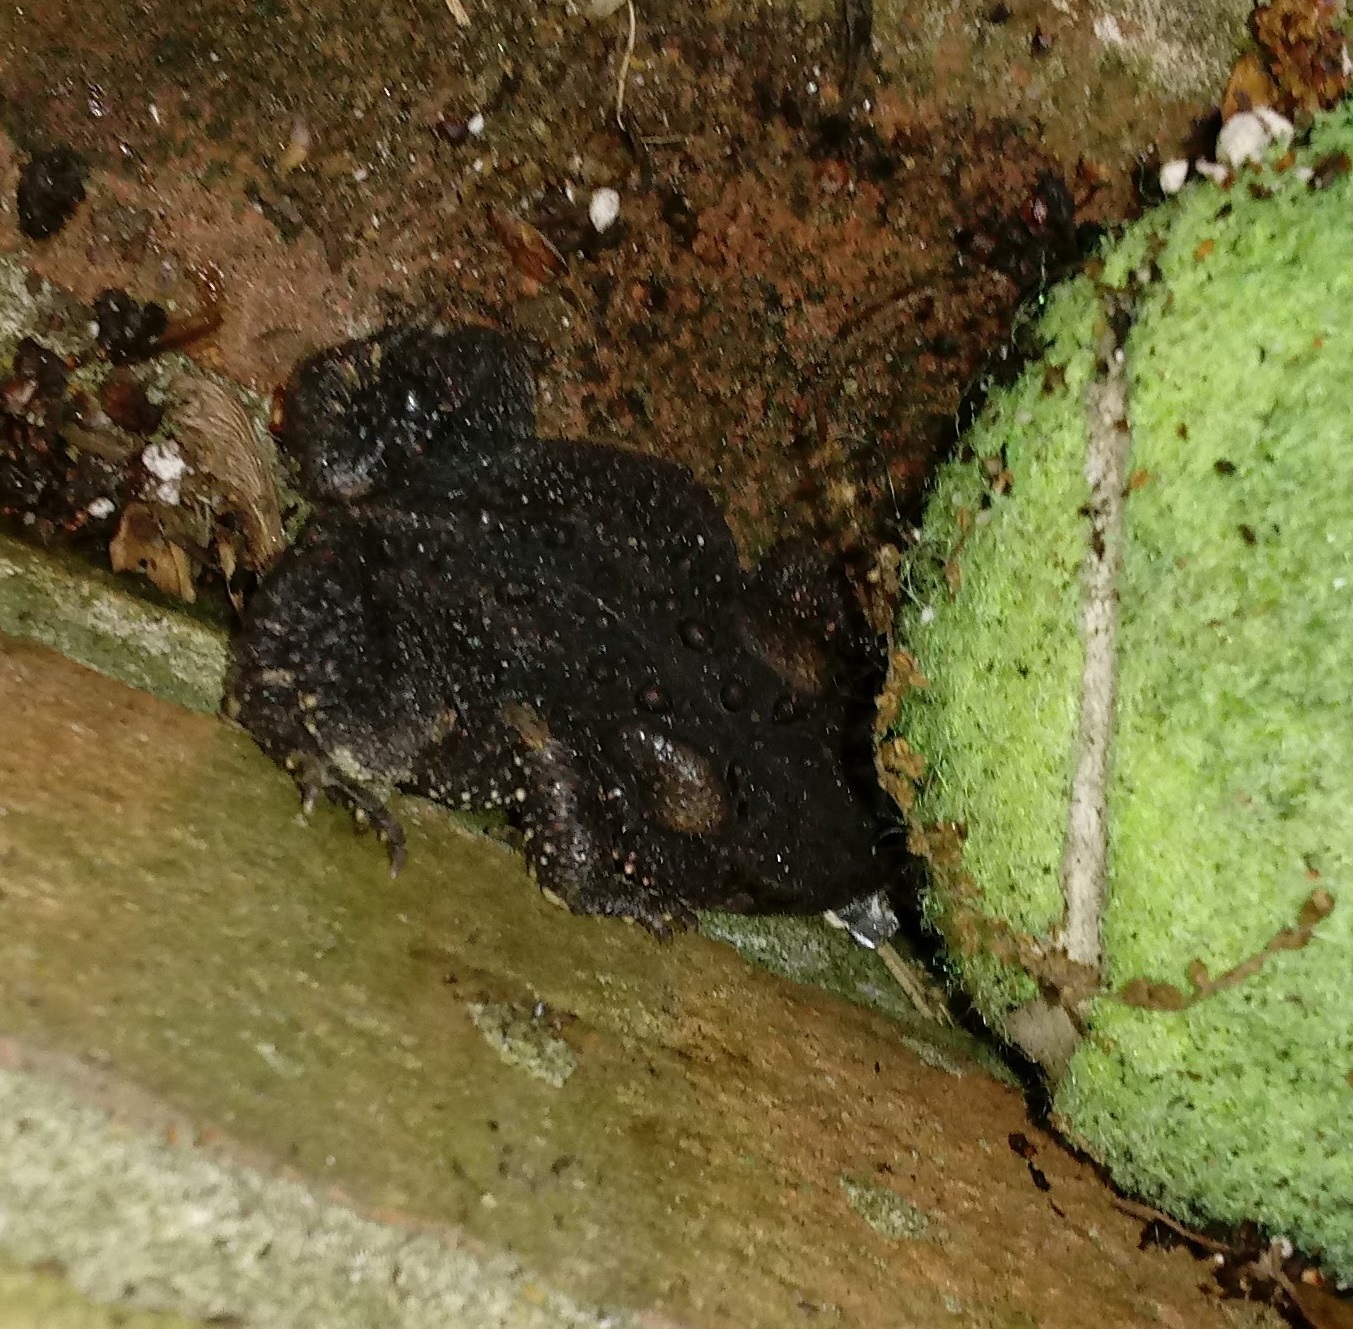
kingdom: Animalia
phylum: Chordata
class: Amphibia
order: Anura
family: Bufonidae
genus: Anaxyrus
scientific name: Anaxyrus americanus
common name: American toad
